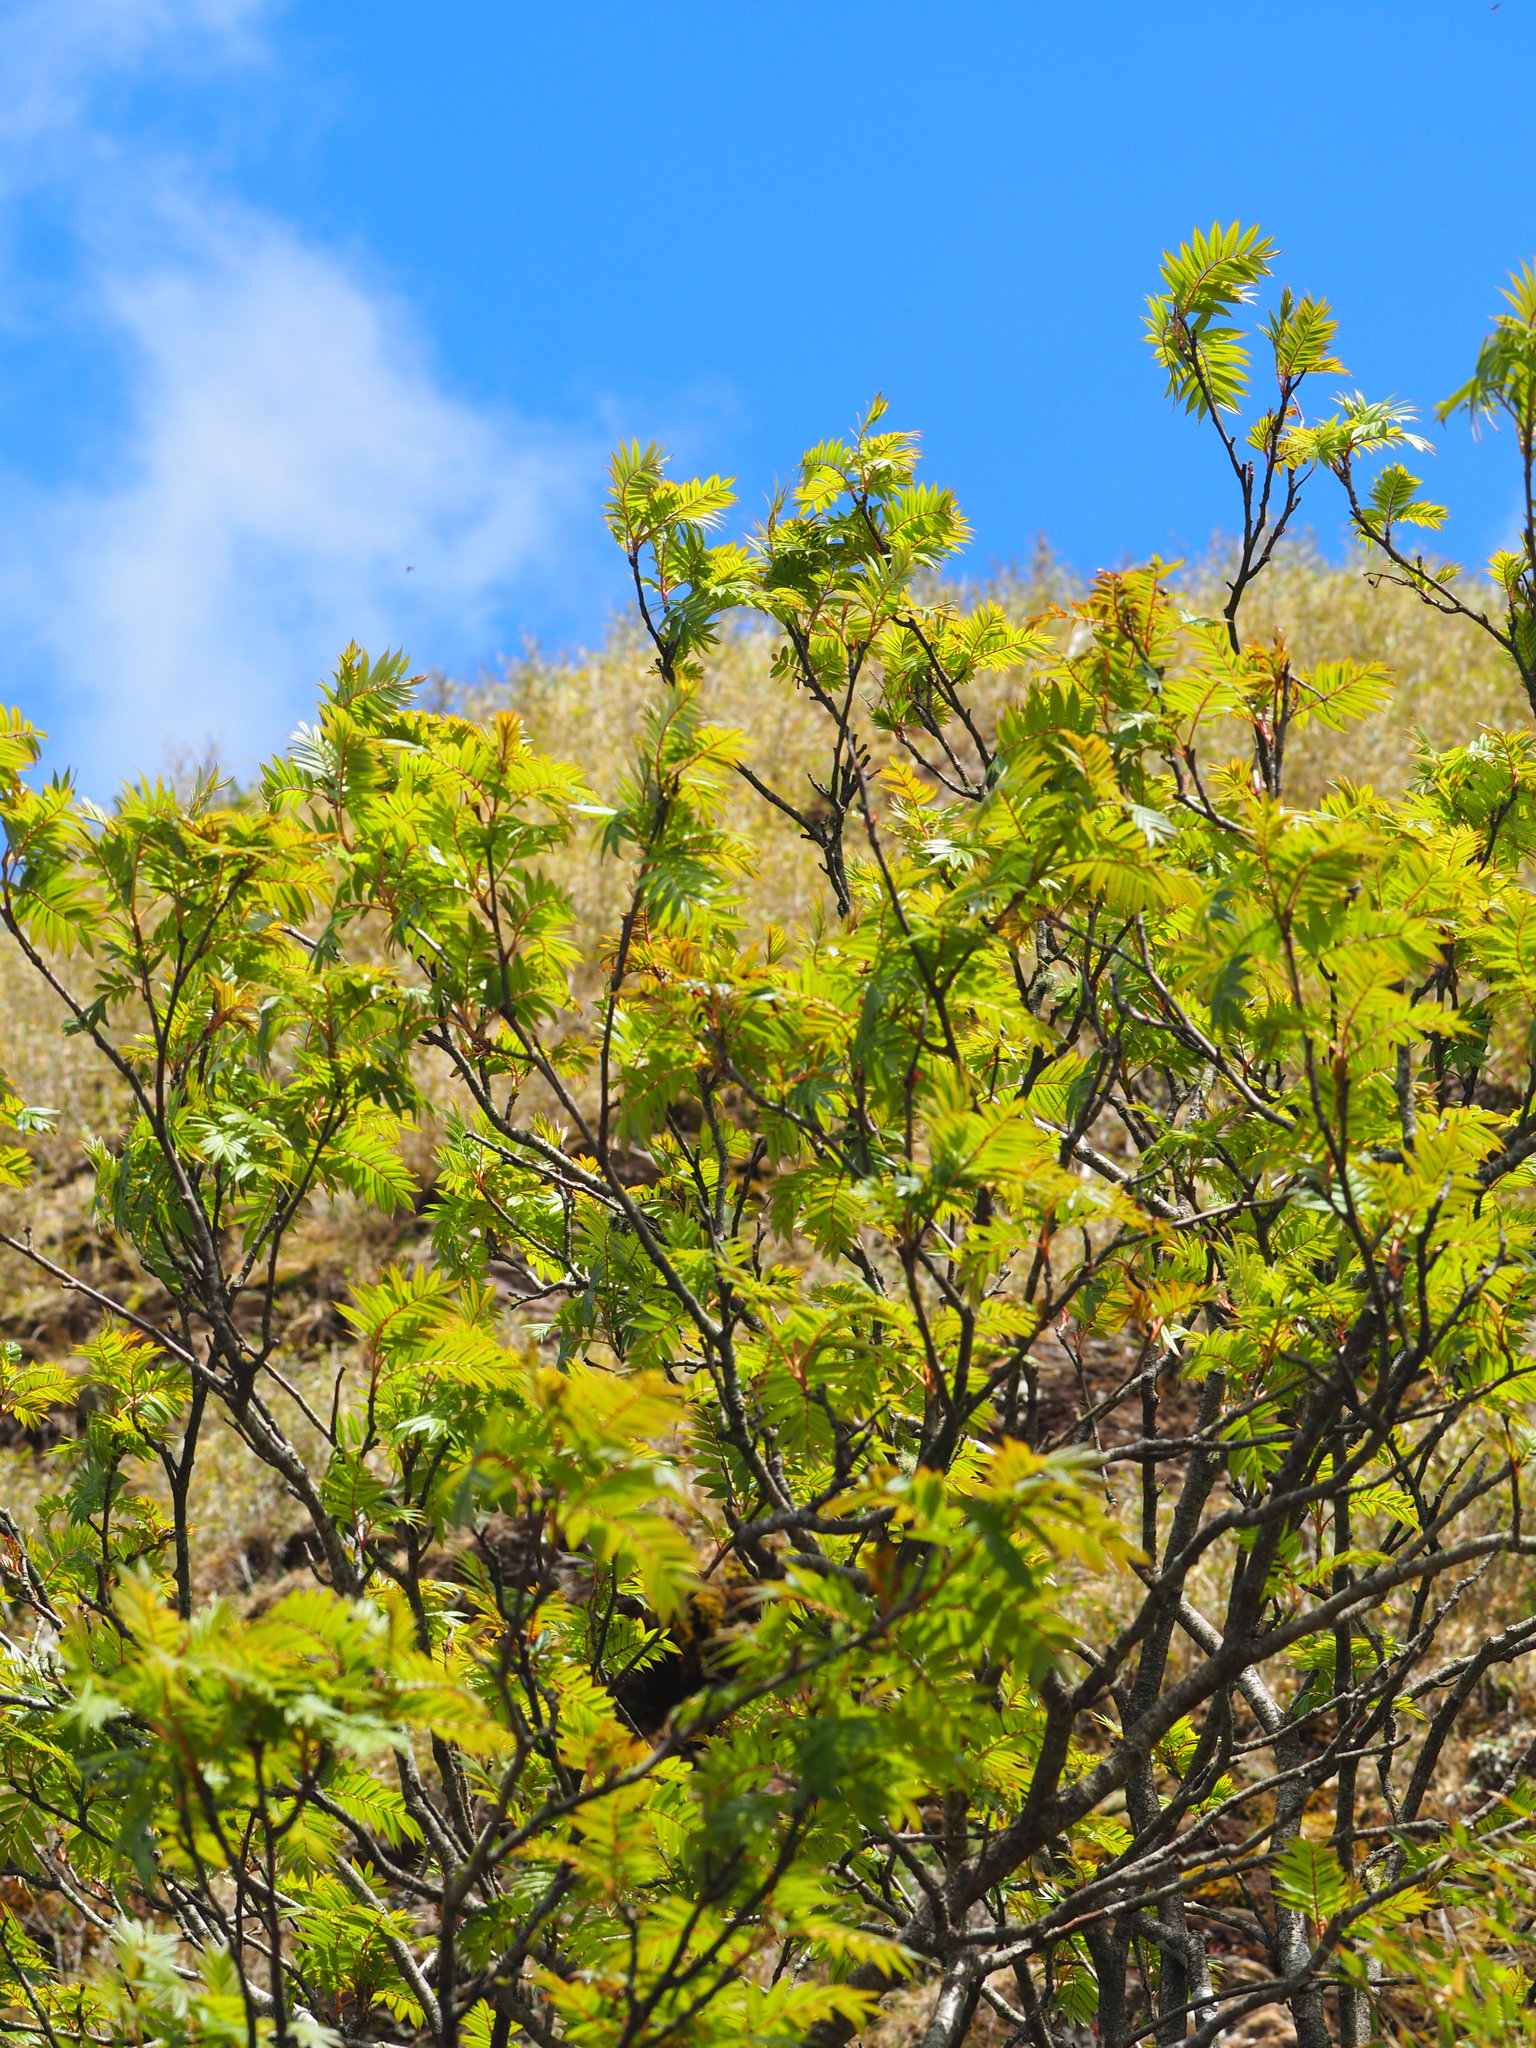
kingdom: Plantae
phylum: Tracheophyta
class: Magnoliopsida
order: Rosales
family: Rosaceae
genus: Sorbus
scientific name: Sorbus randaiensis
